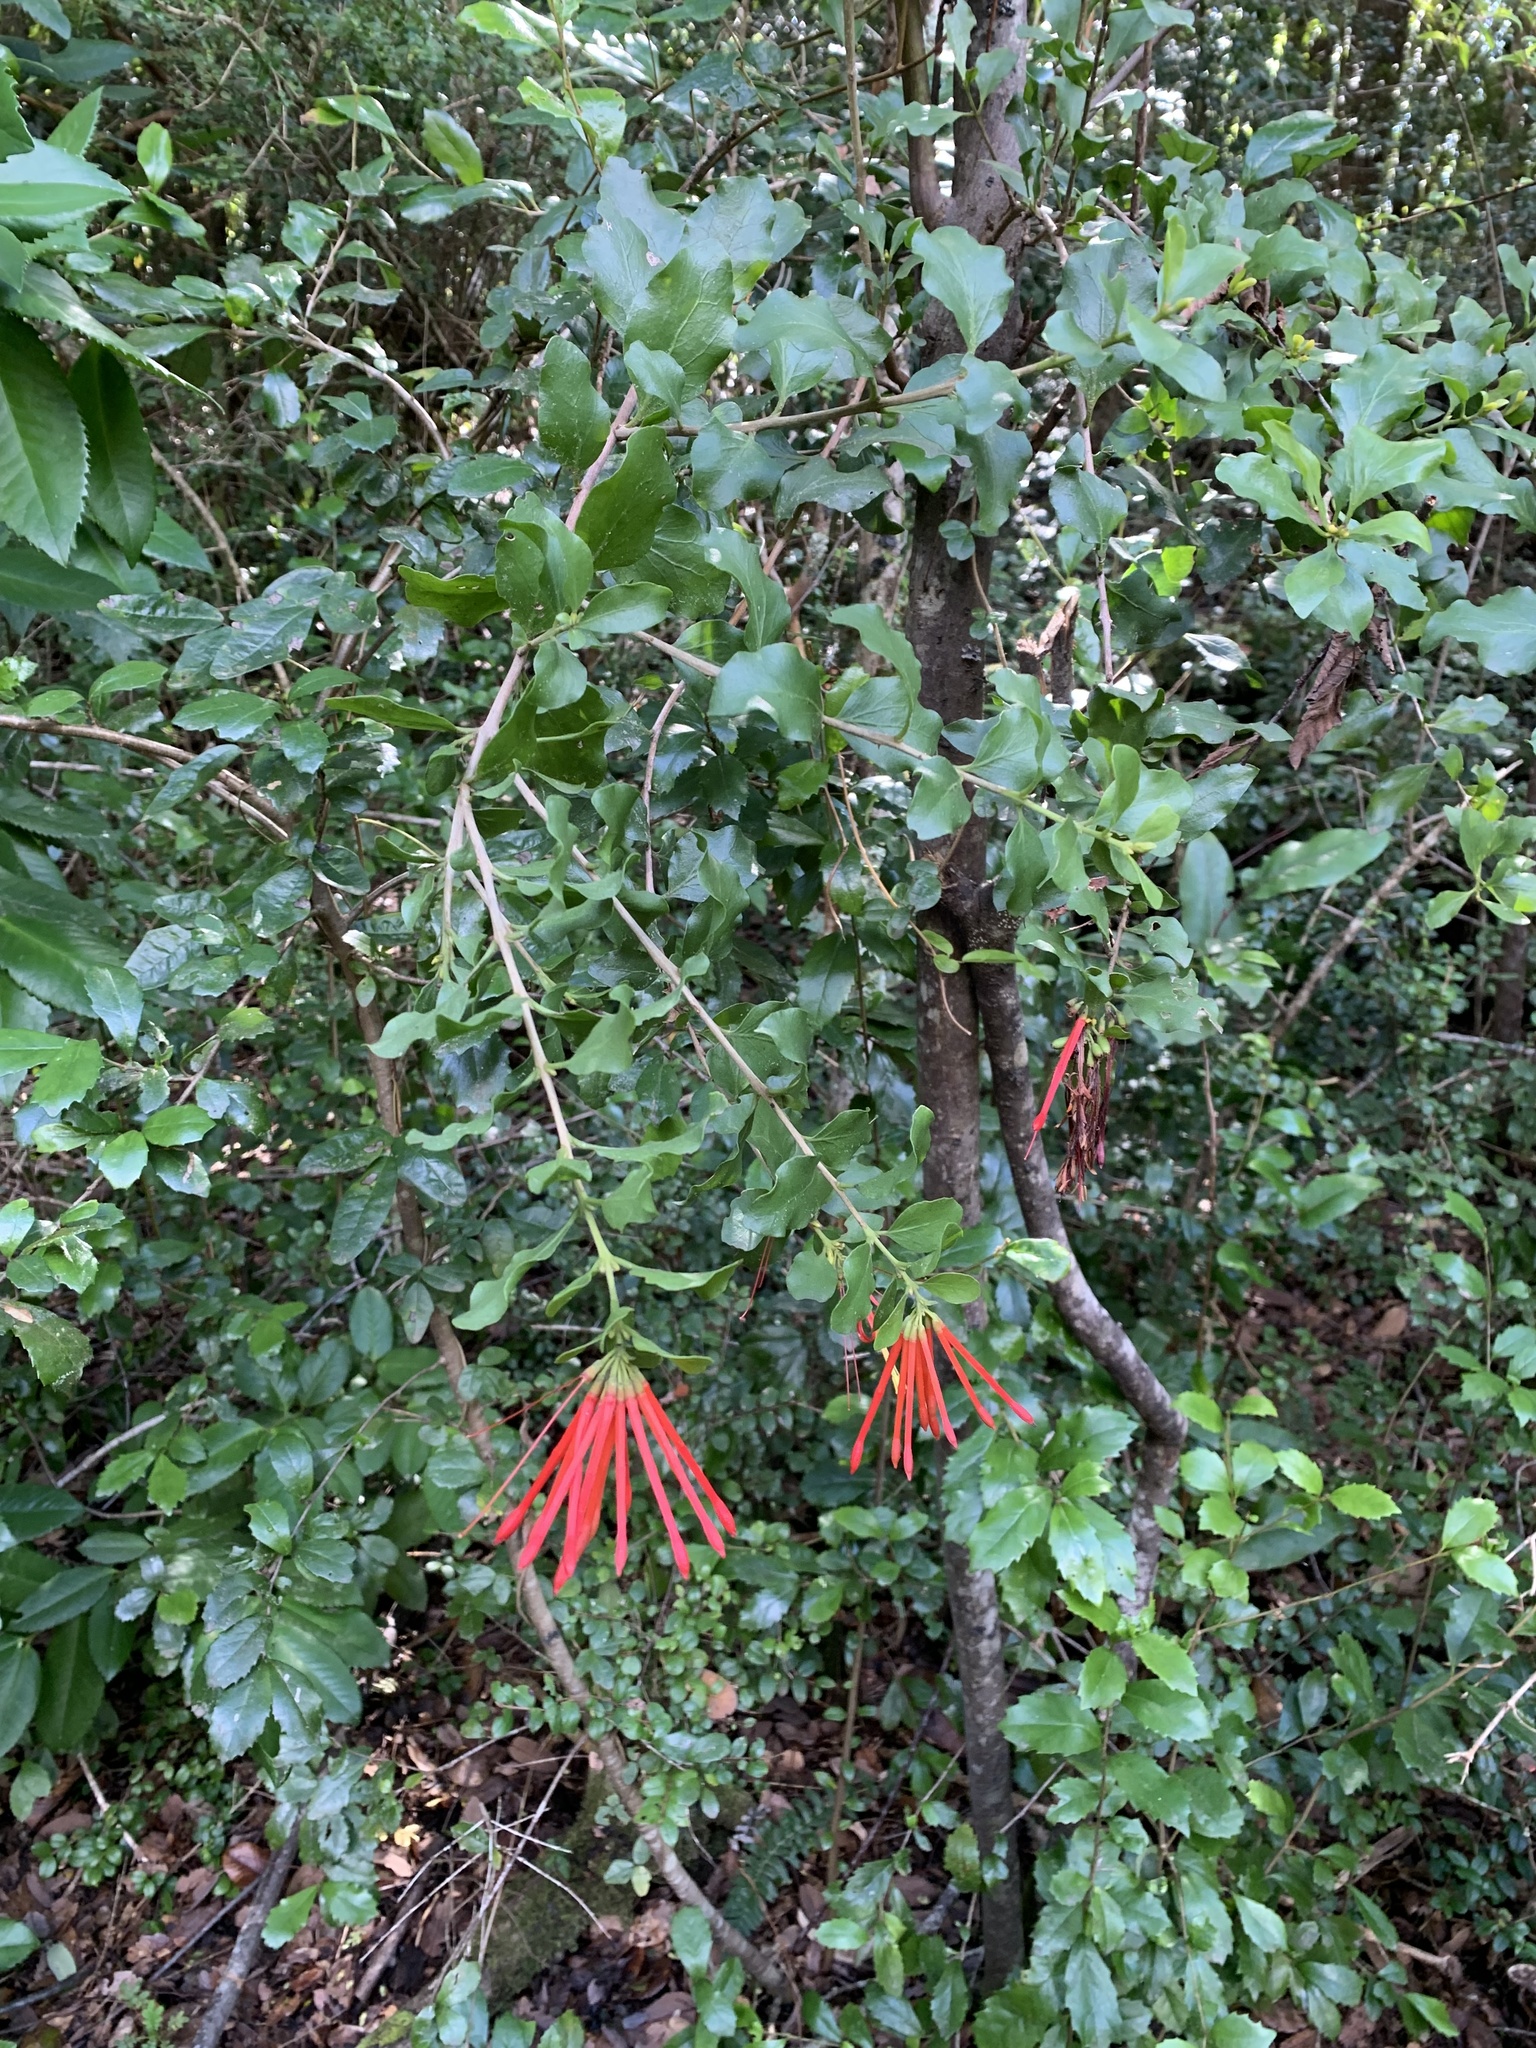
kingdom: Plantae
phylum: Tracheophyta
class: Magnoliopsida
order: Santalales
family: Loranthaceae
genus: Tristerix
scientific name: Tristerix corymbosus
